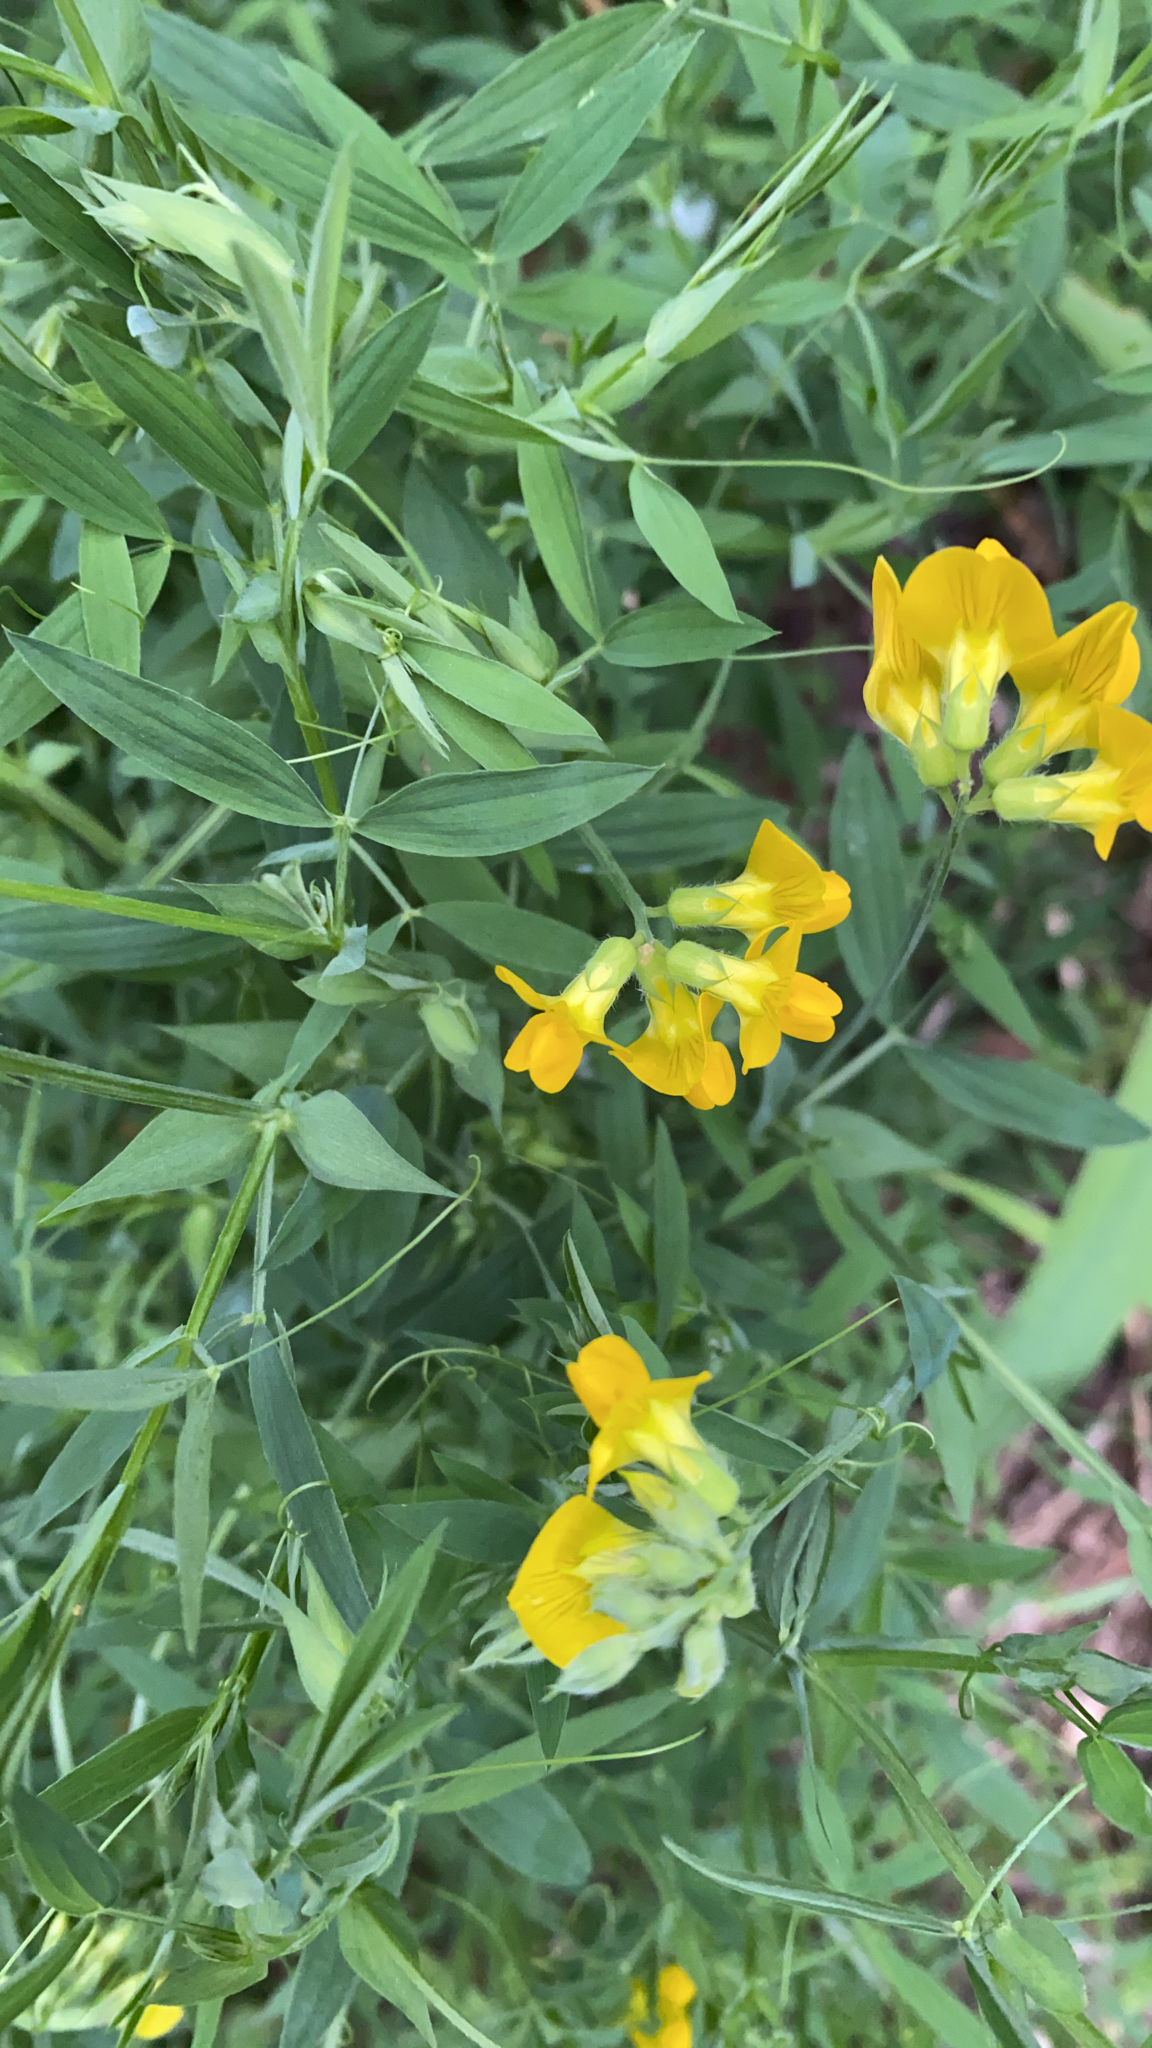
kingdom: Plantae
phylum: Tracheophyta
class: Magnoliopsida
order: Fabales
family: Fabaceae
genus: Lathyrus
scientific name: Lathyrus pratensis
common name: Meadow vetchling
